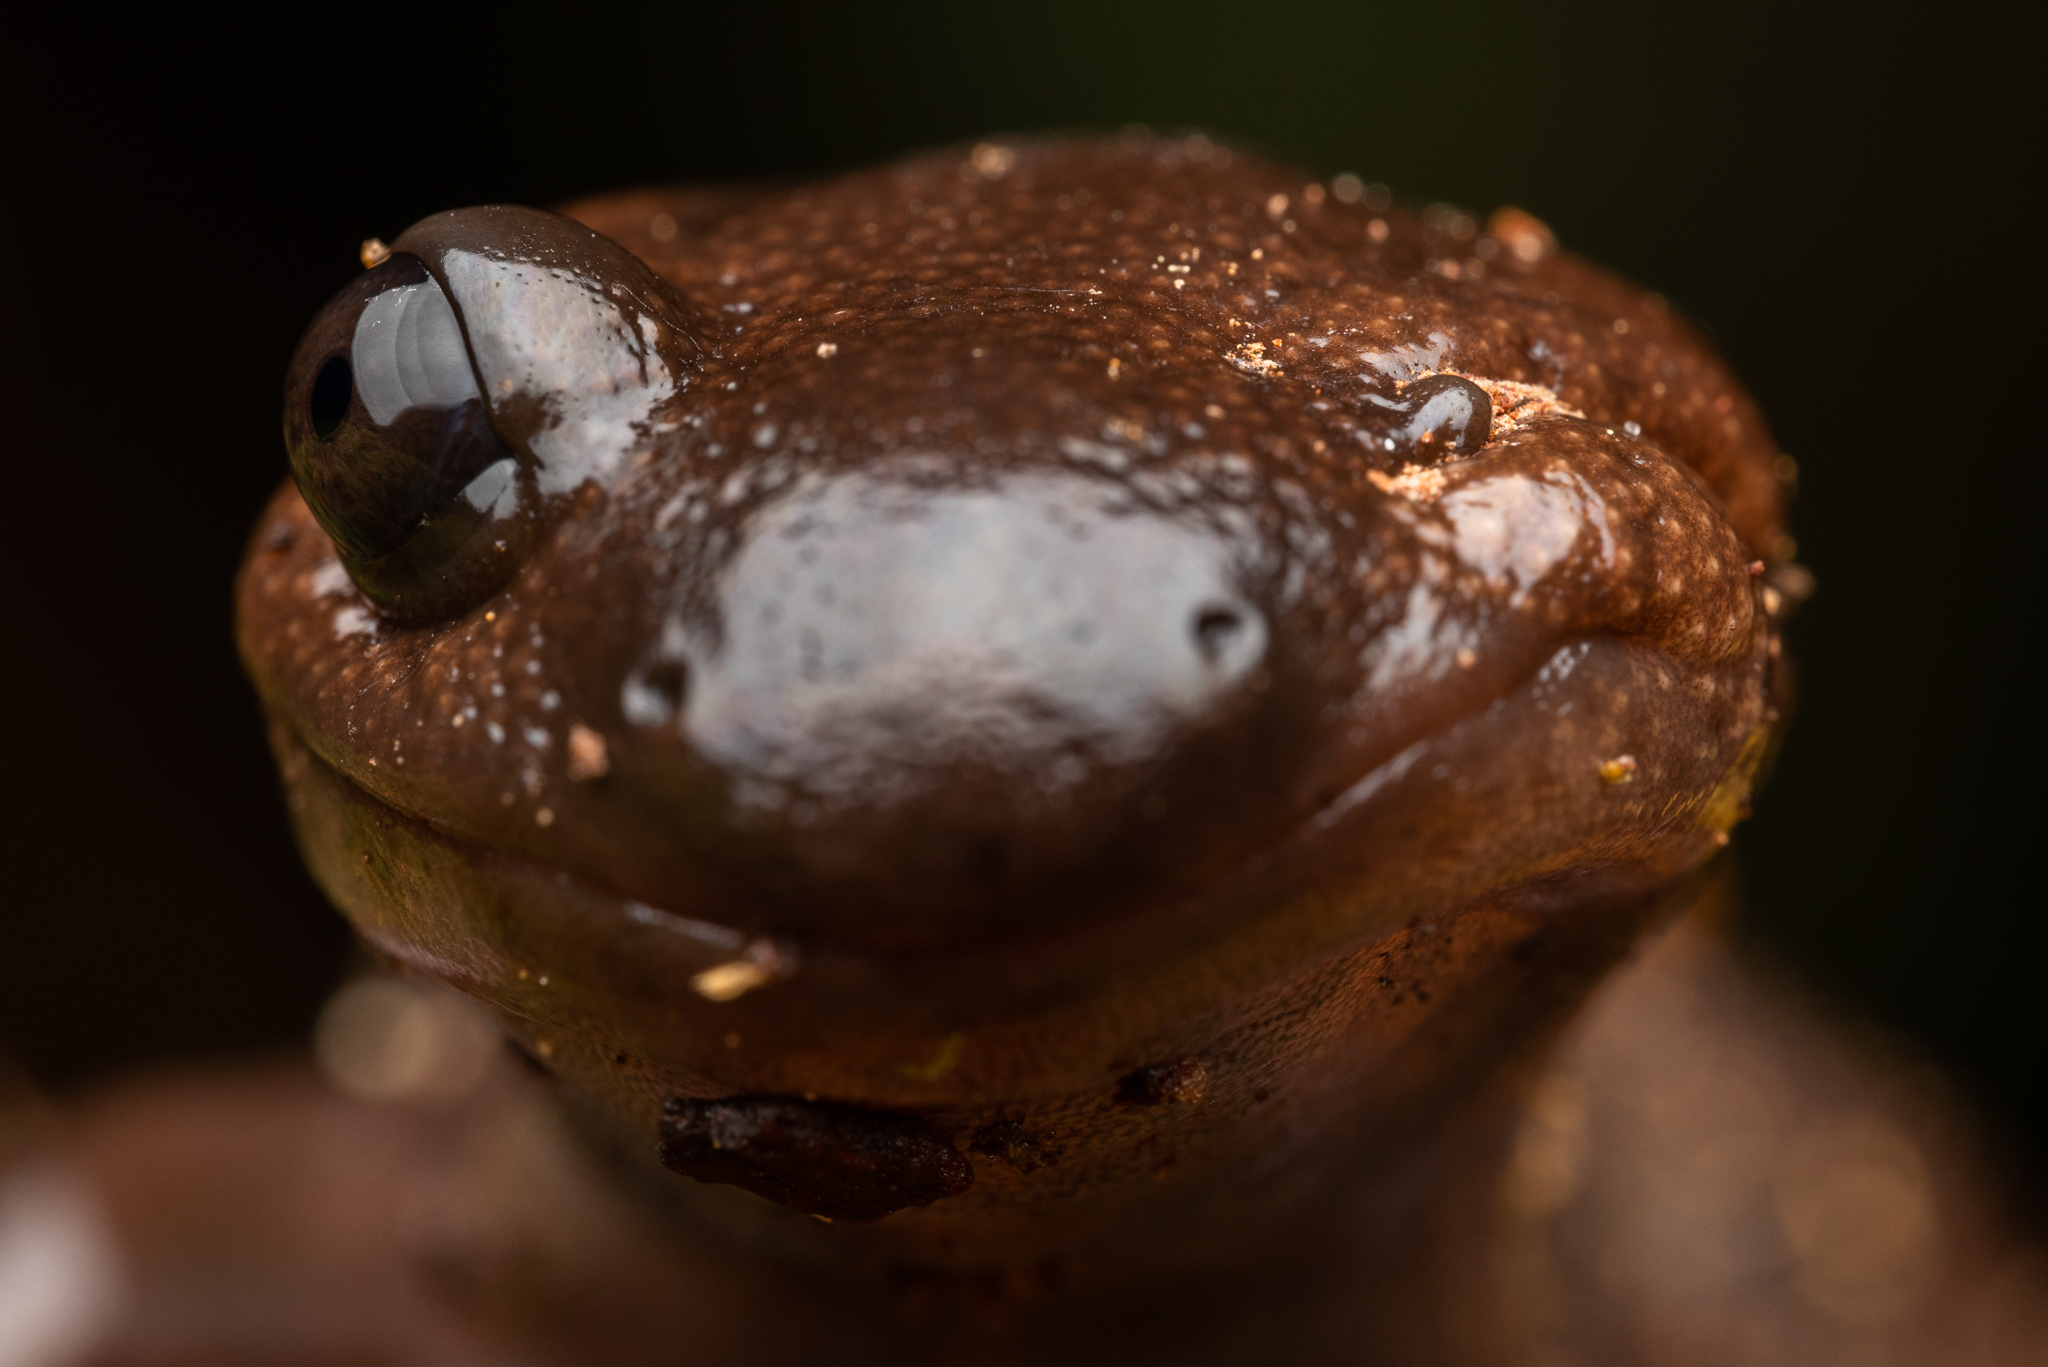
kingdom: Animalia
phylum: Chordata
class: Amphibia
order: Caudata
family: Ambystomatidae
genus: Ambystoma
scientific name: Ambystoma gracile
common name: Northwestern salamander
